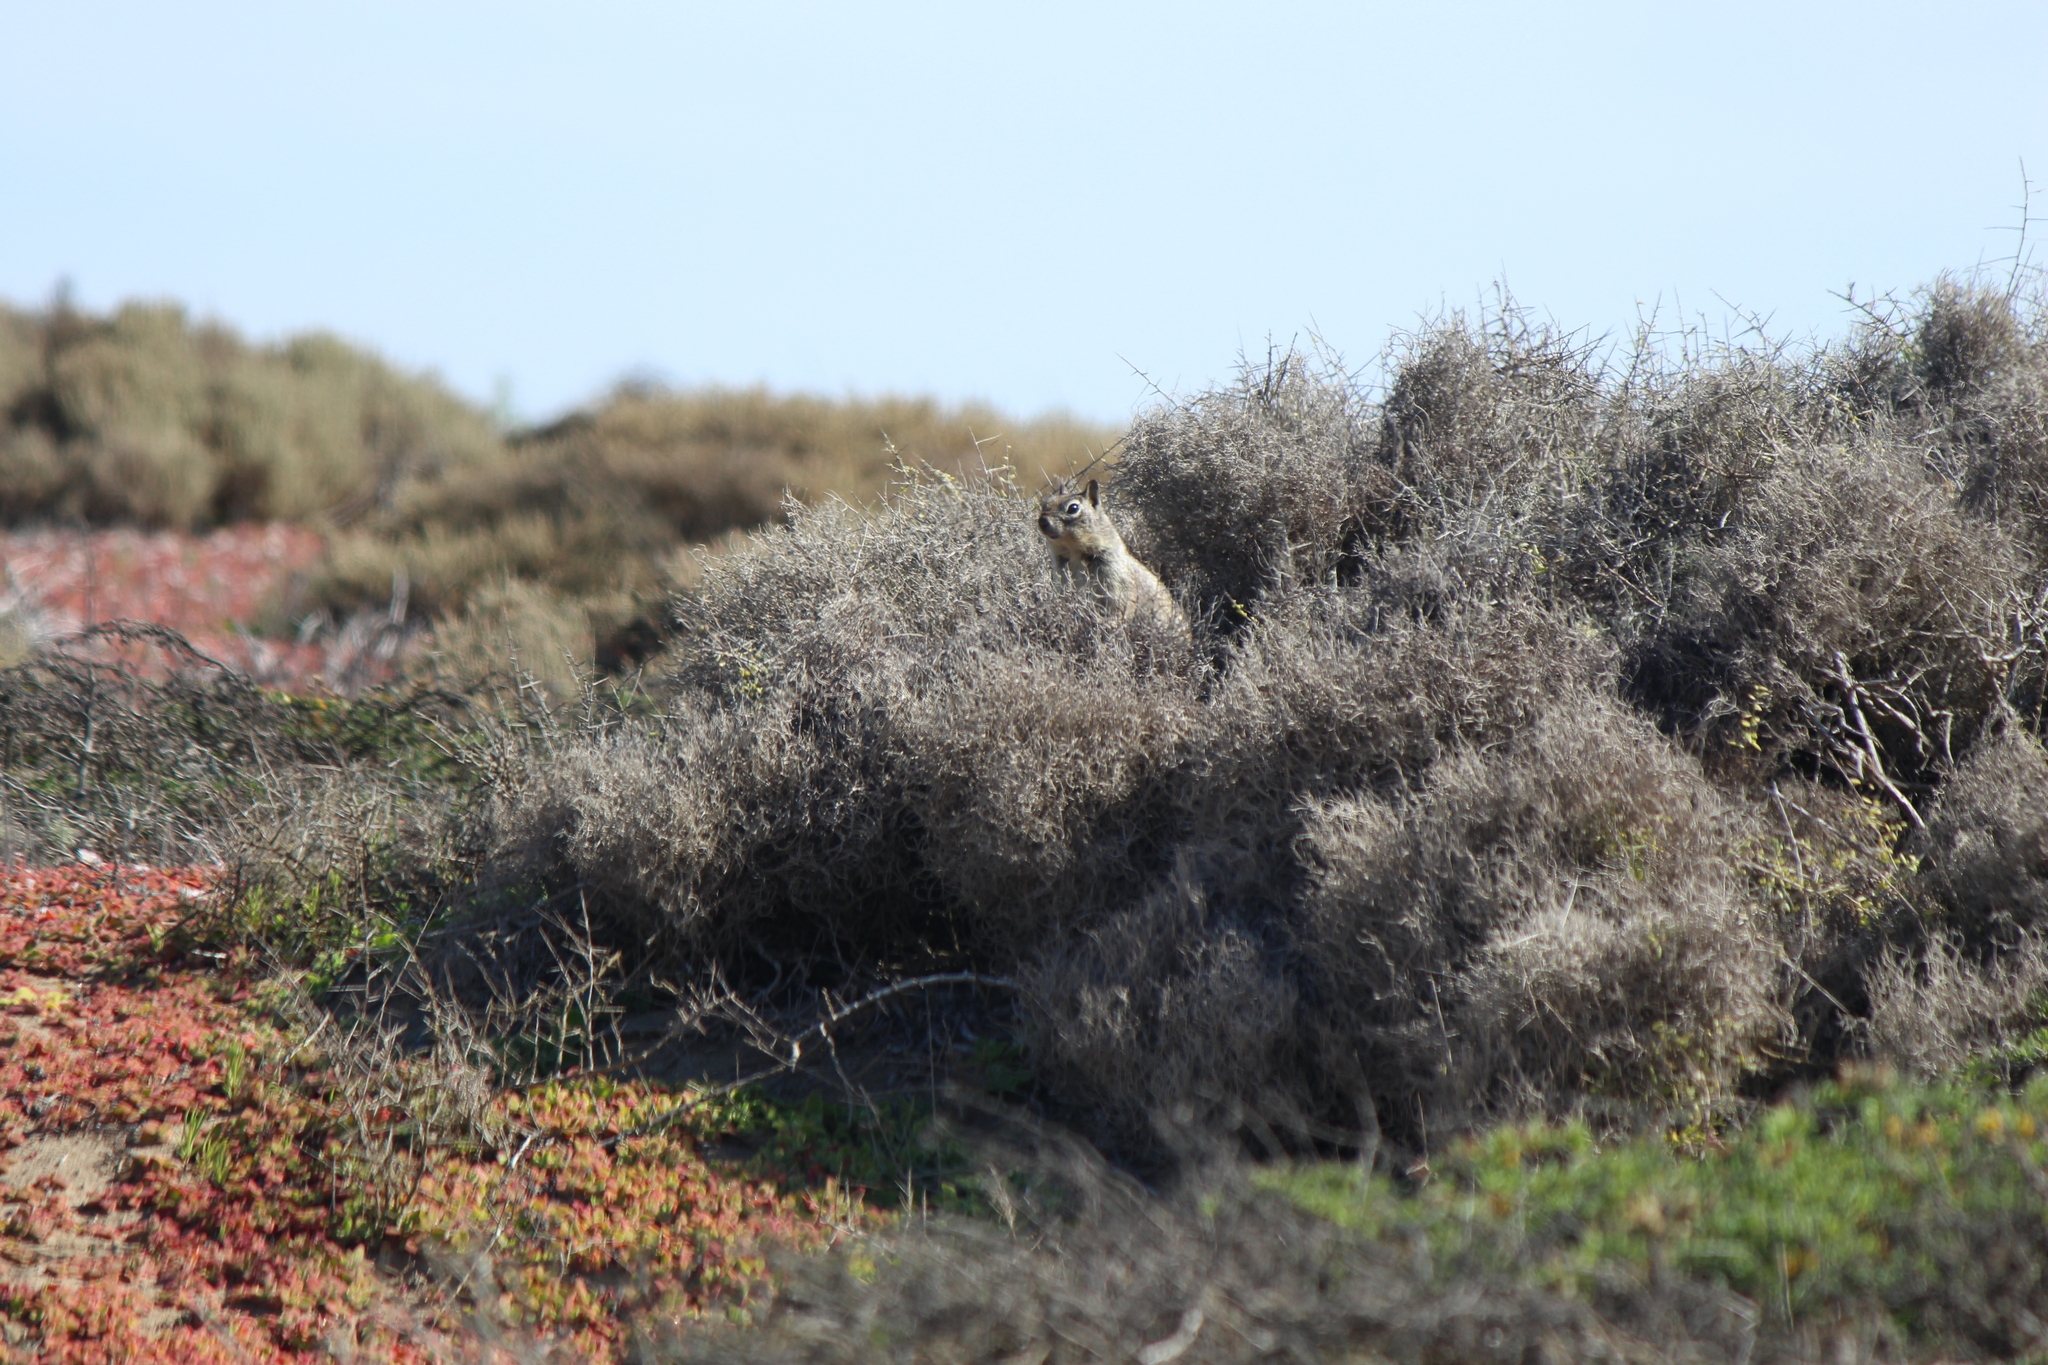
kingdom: Animalia
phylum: Chordata
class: Mammalia
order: Rodentia
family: Sciuridae
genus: Otospermophilus
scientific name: Otospermophilus beecheyi
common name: California ground squirrel
